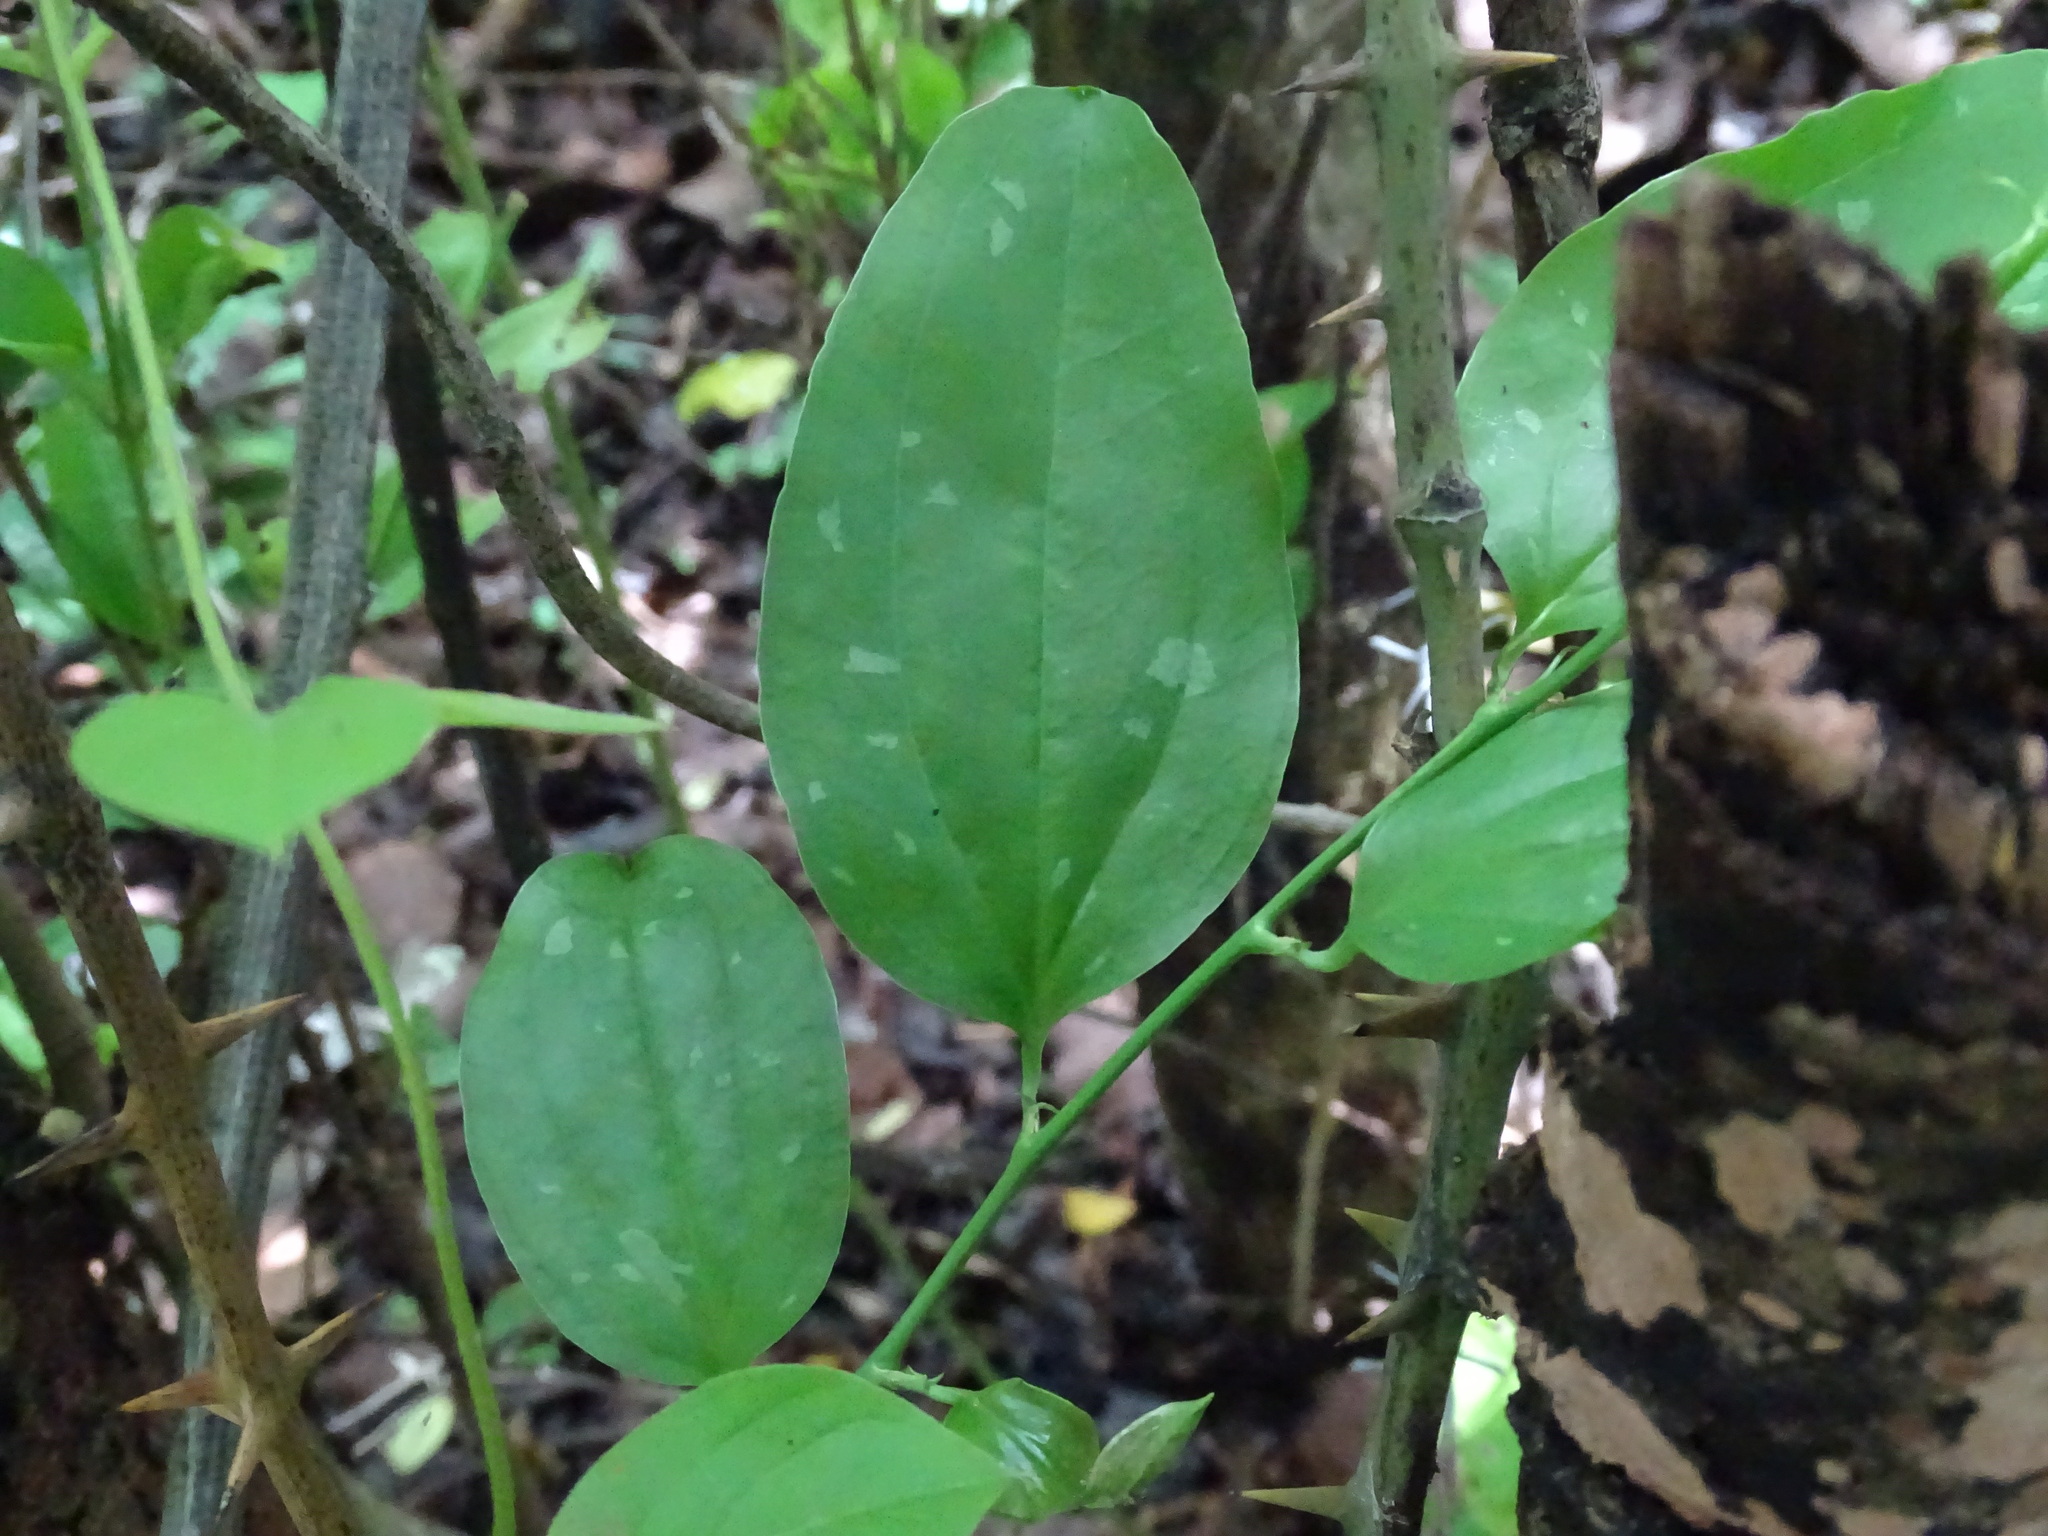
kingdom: Plantae
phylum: Tracheophyta
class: Liliopsida
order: Liliales
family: Smilacaceae
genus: Smilax
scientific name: Smilax spinosa
